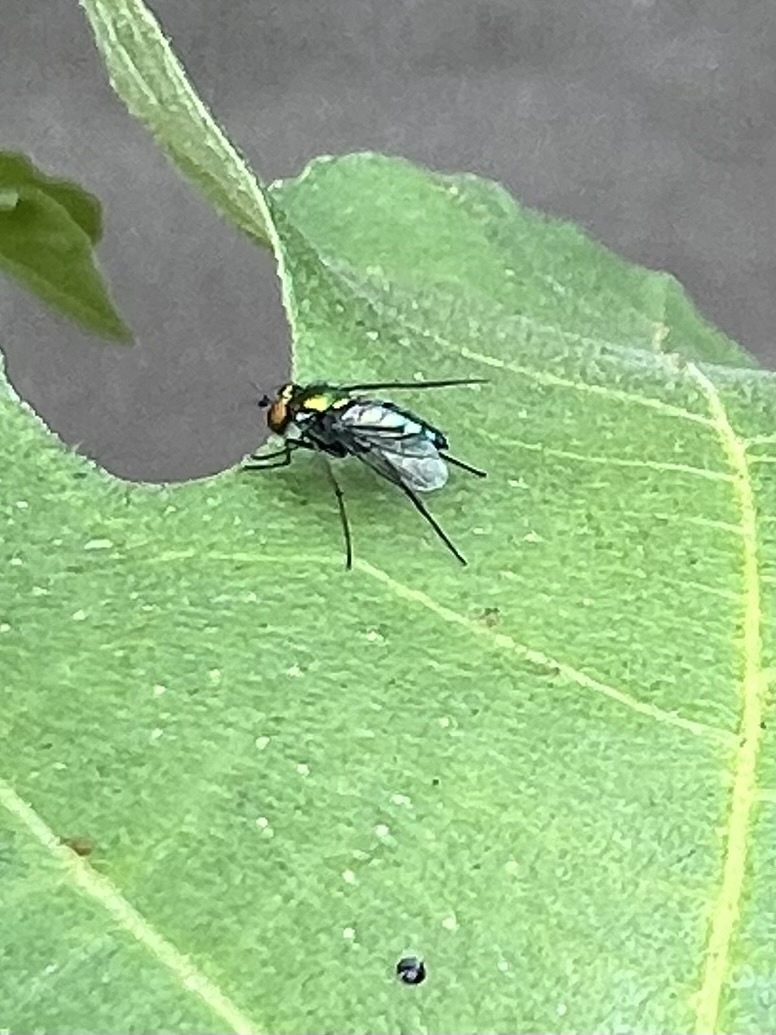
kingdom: Animalia
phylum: Arthropoda
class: Insecta
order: Diptera
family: Dolichopodidae
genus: Condylostylus
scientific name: Condylostylus longicornis
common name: Long-legged fly
